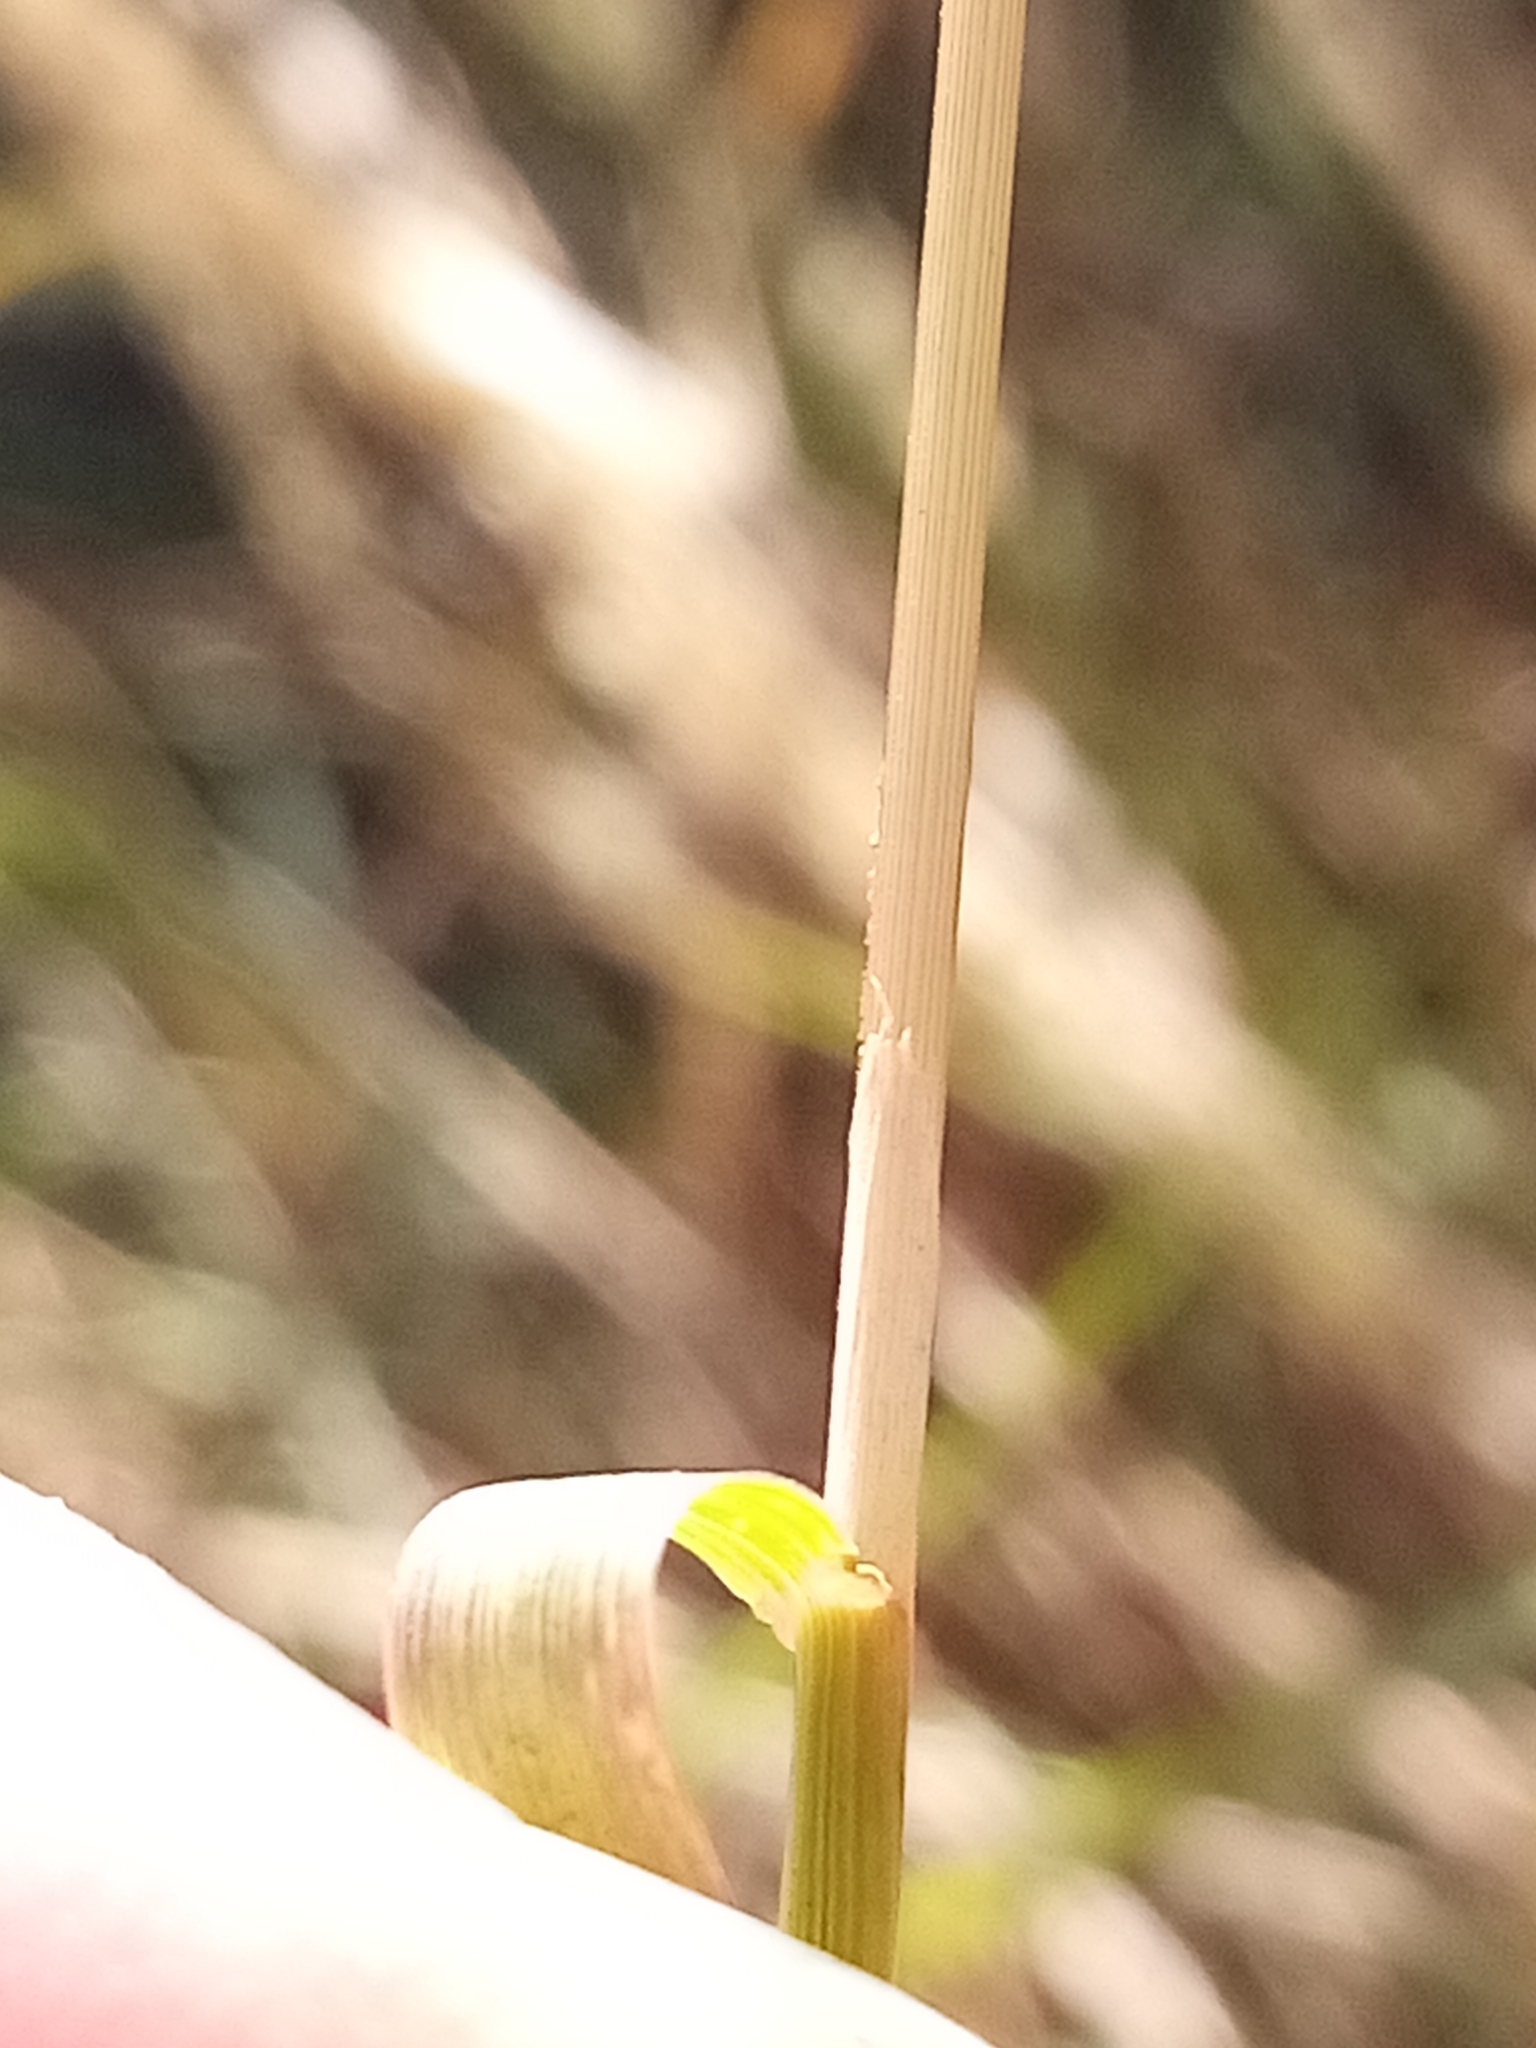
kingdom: Plantae
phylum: Tracheophyta
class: Liliopsida
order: Poales
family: Poaceae
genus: Agrostis
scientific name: Agrostis stolonifera
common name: Creeping bentgrass
